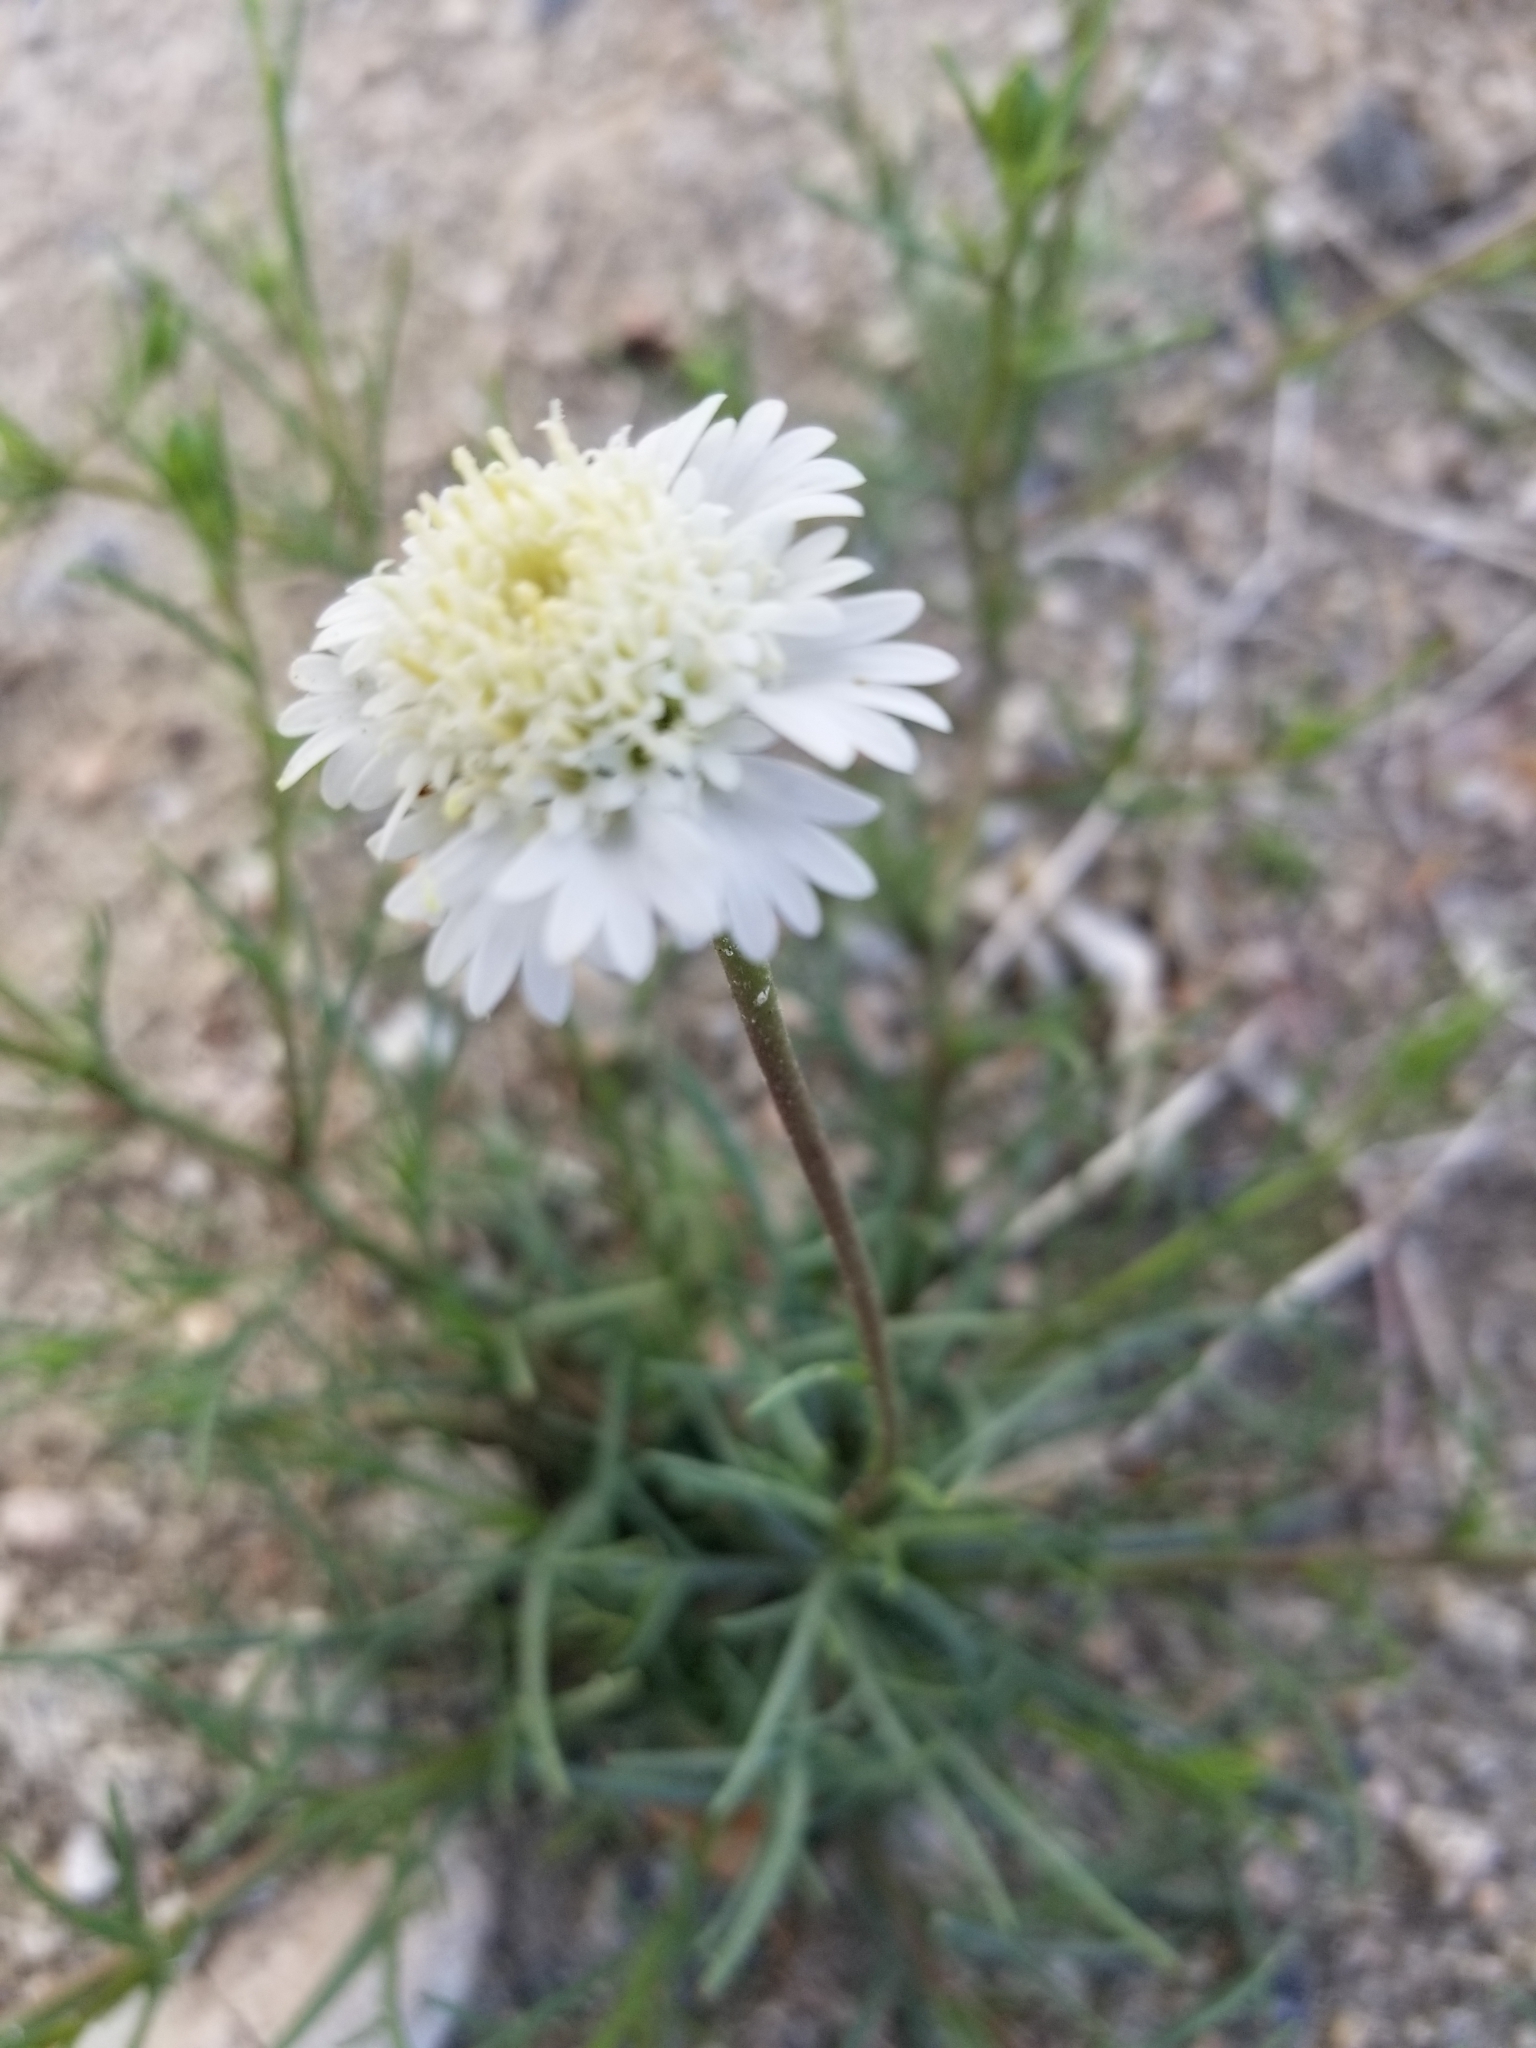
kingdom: Plantae
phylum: Tracheophyta
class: Magnoliopsida
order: Asterales
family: Asteraceae
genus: Chaenactis
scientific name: Chaenactis fremontii
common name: Fremont pincushion
